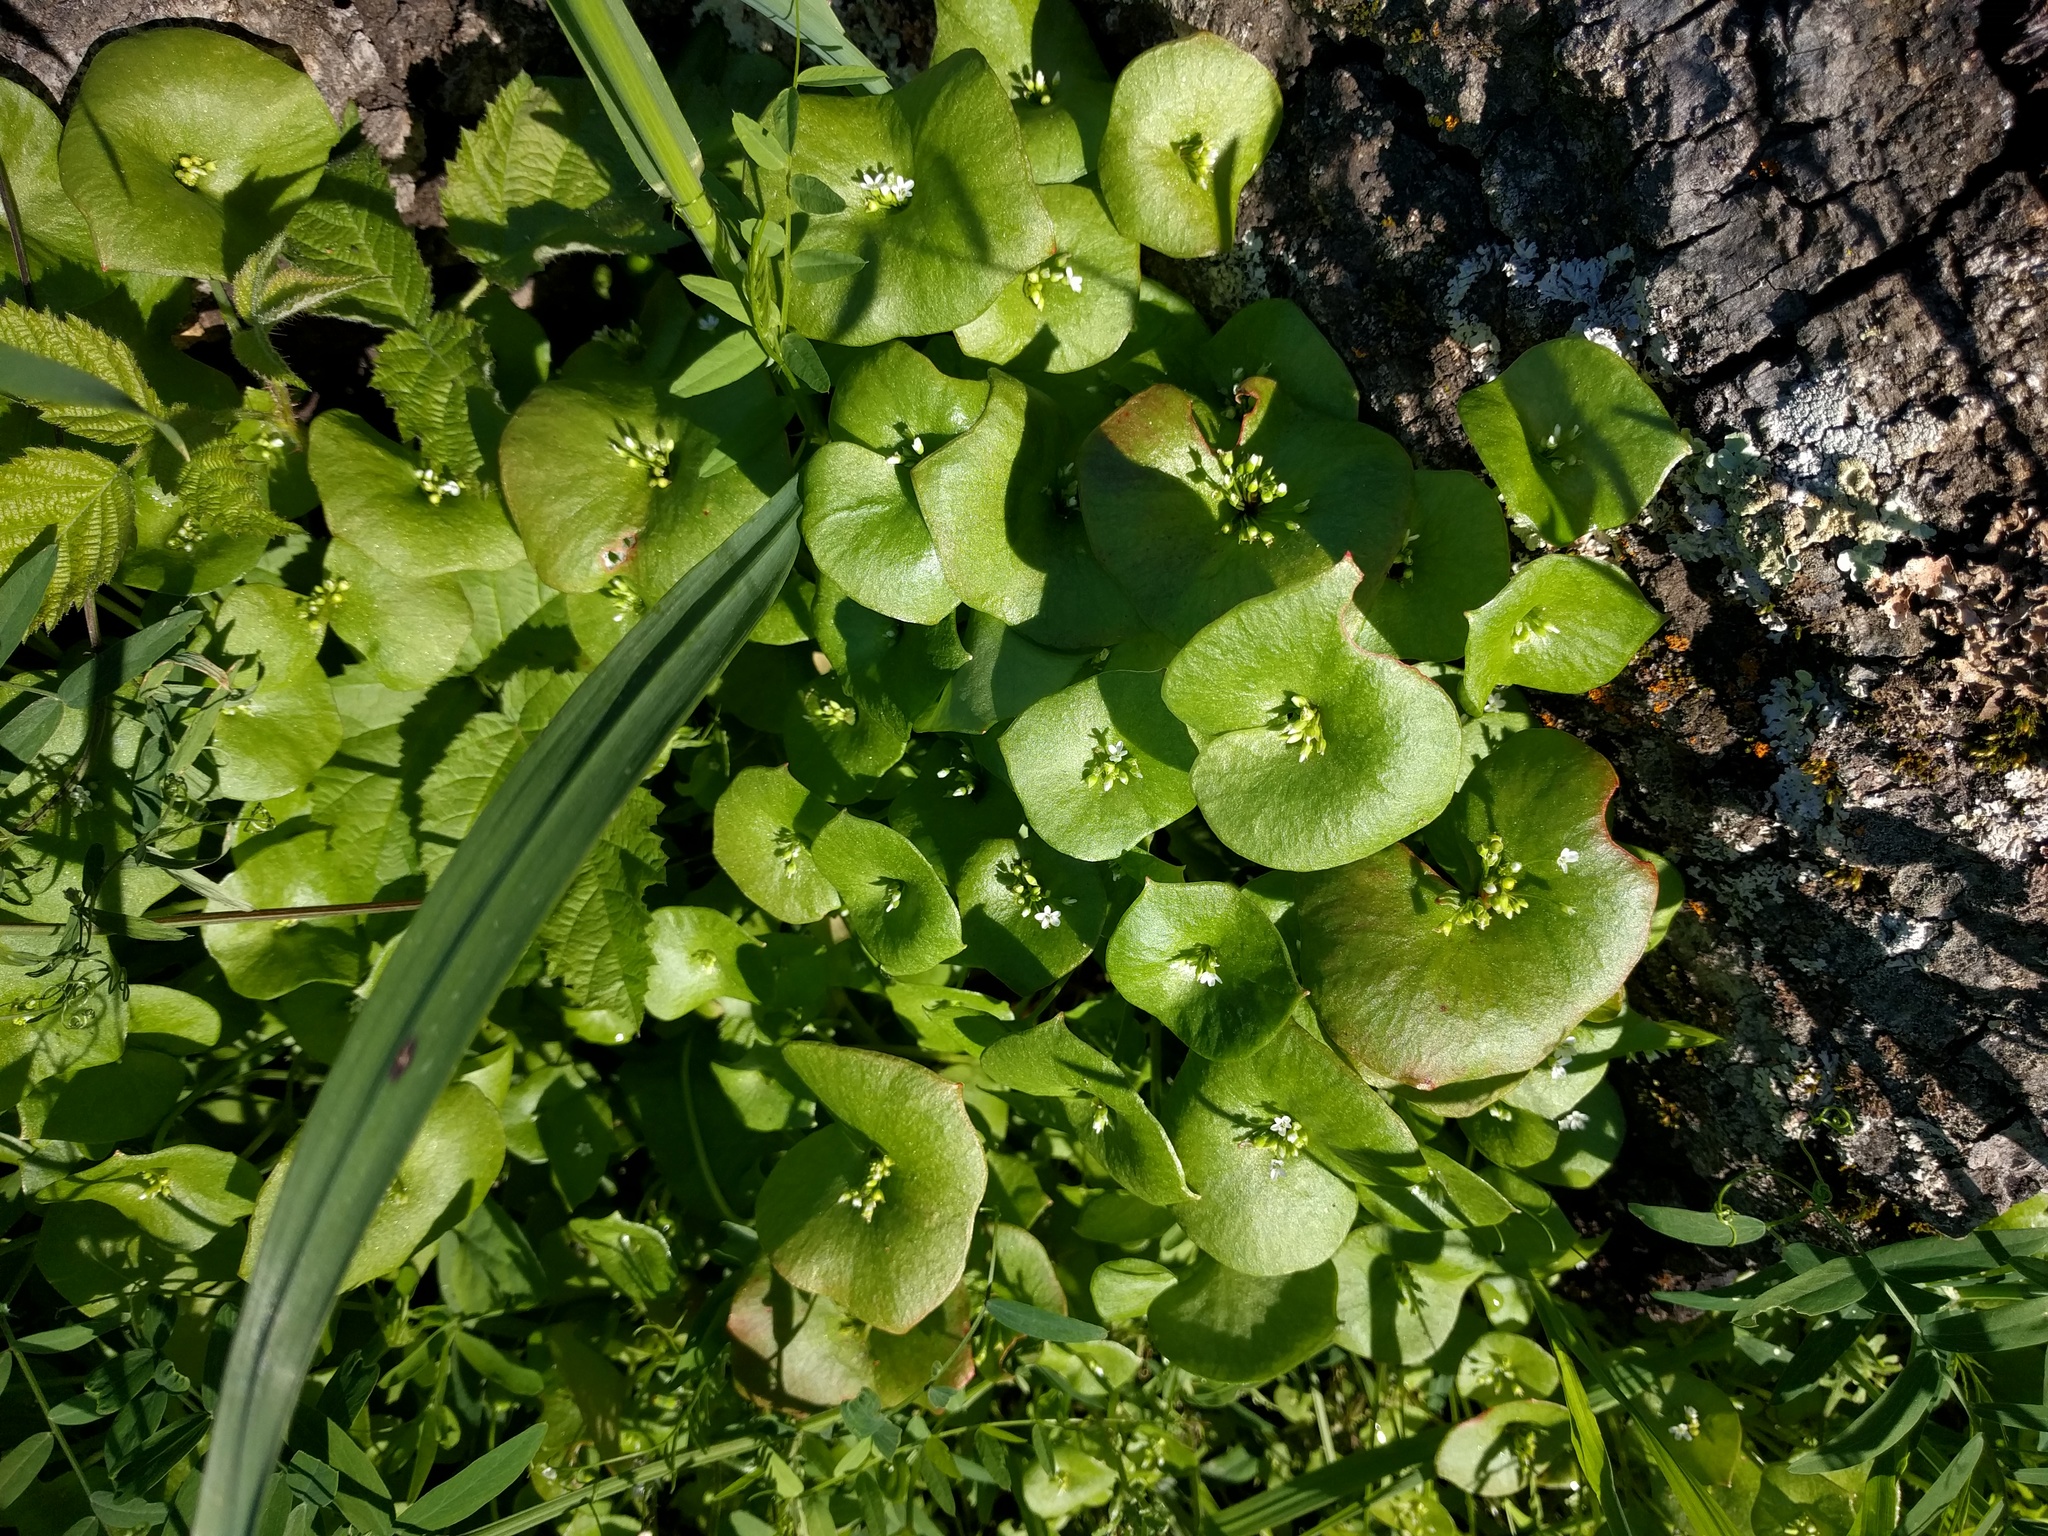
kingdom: Plantae
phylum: Tracheophyta
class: Magnoliopsida
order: Caryophyllales
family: Montiaceae
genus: Claytonia
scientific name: Claytonia perfoliata
